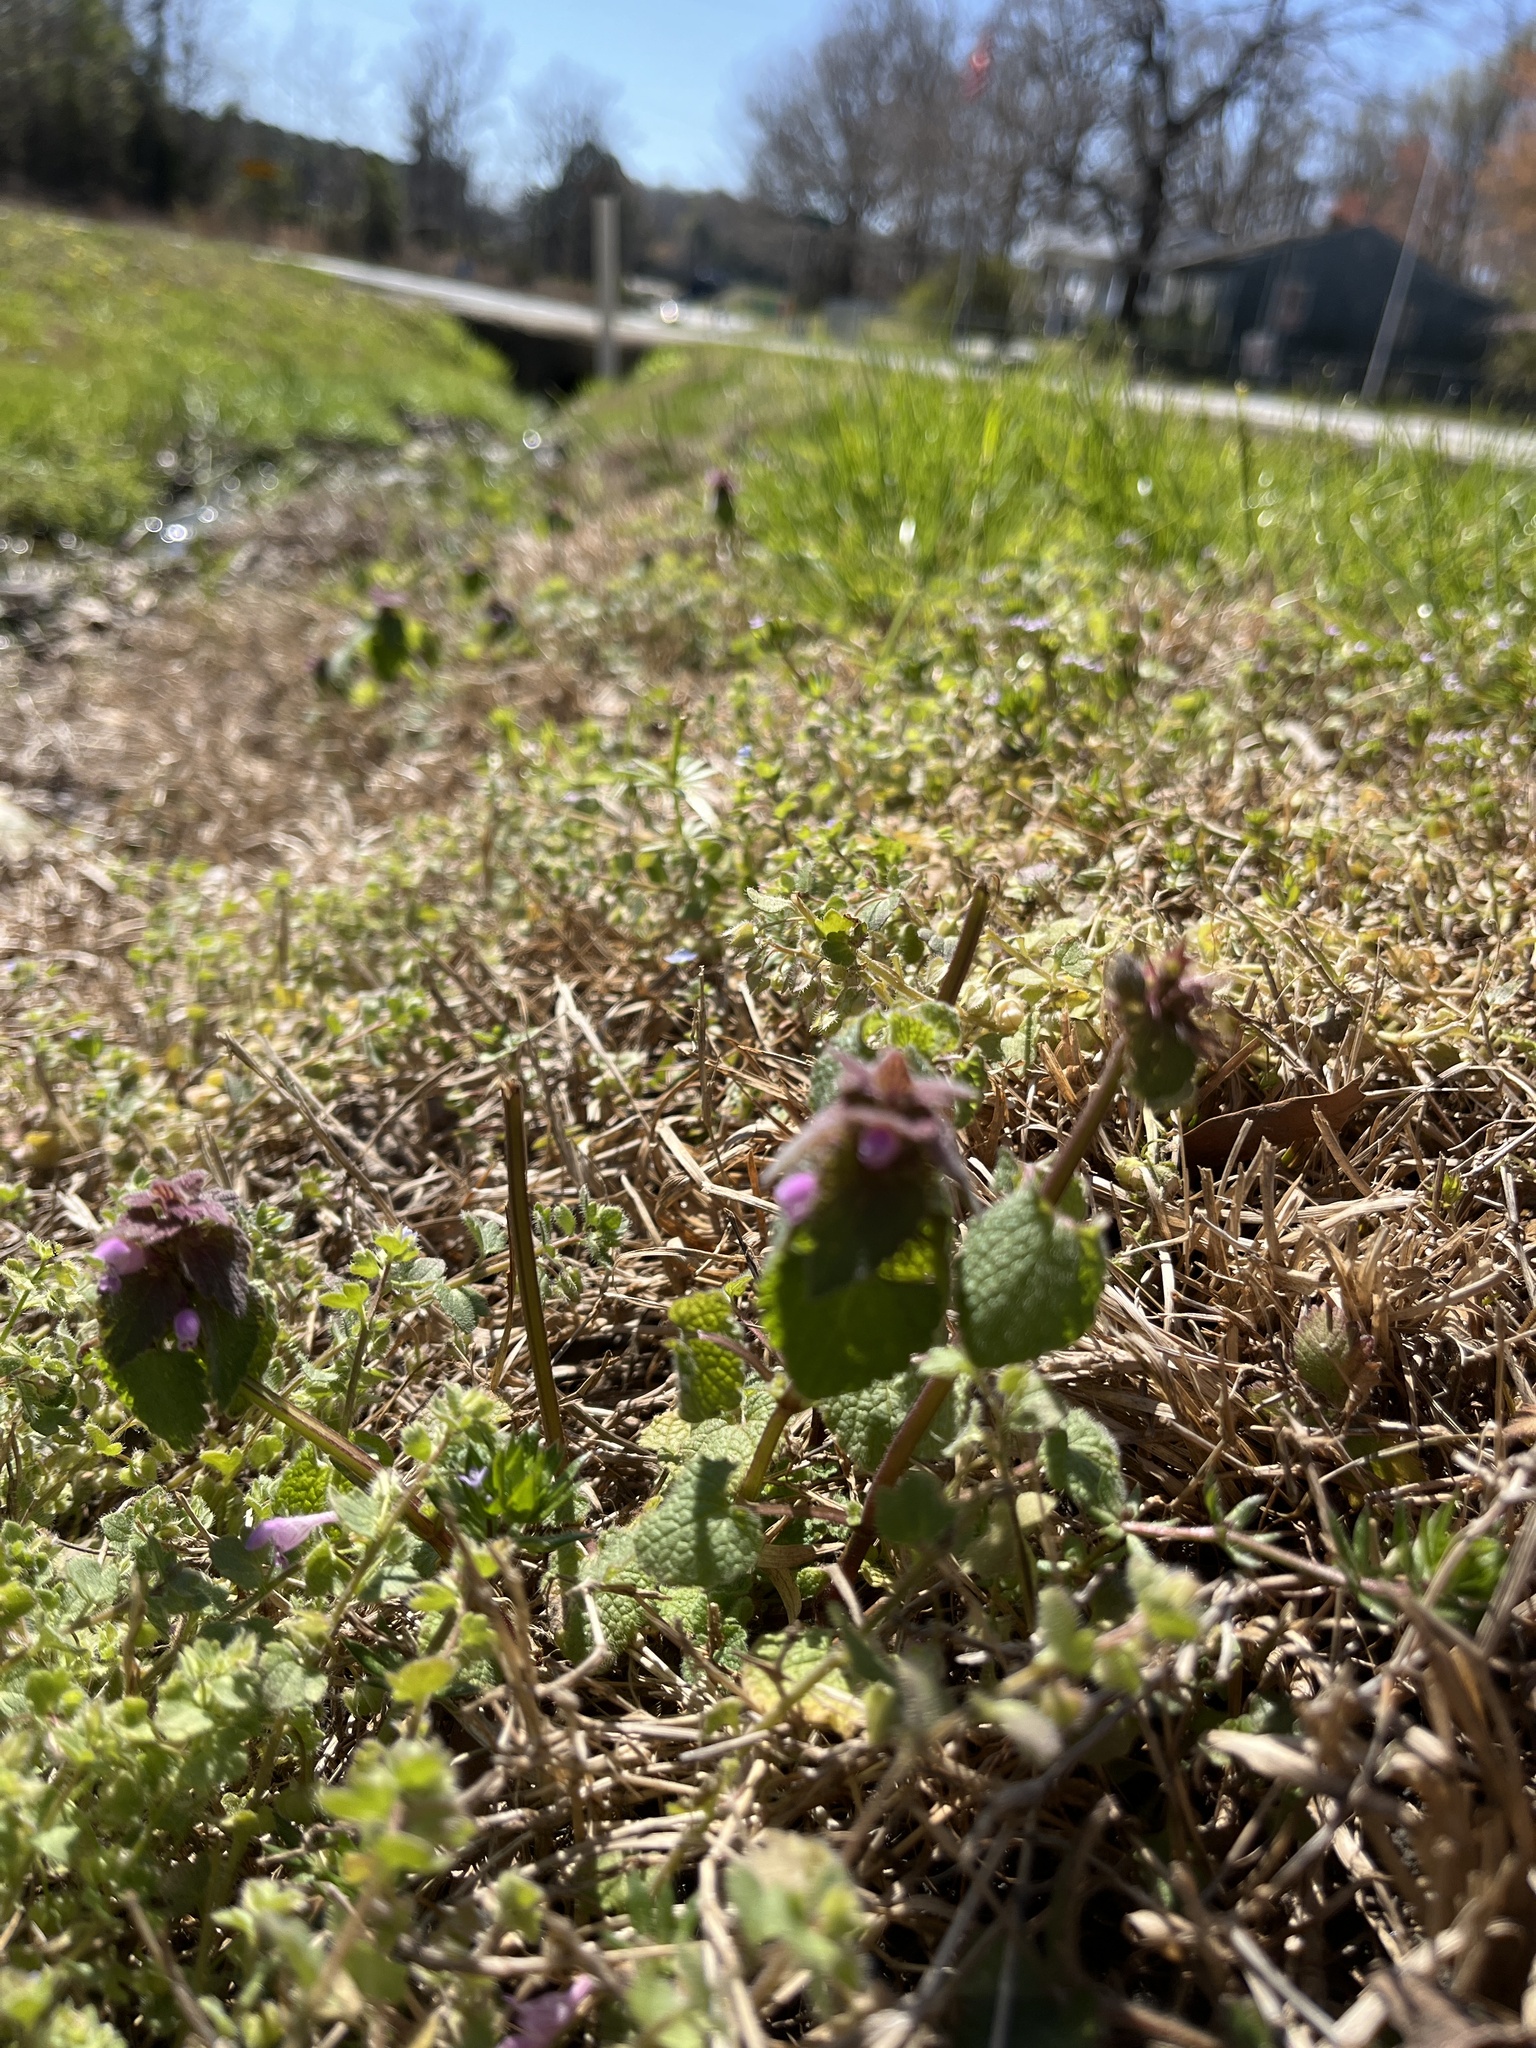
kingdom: Plantae
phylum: Tracheophyta
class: Magnoliopsida
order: Lamiales
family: Lamiaceae
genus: Lamium
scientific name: Lamium purpureum
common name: Red dead-nettle
